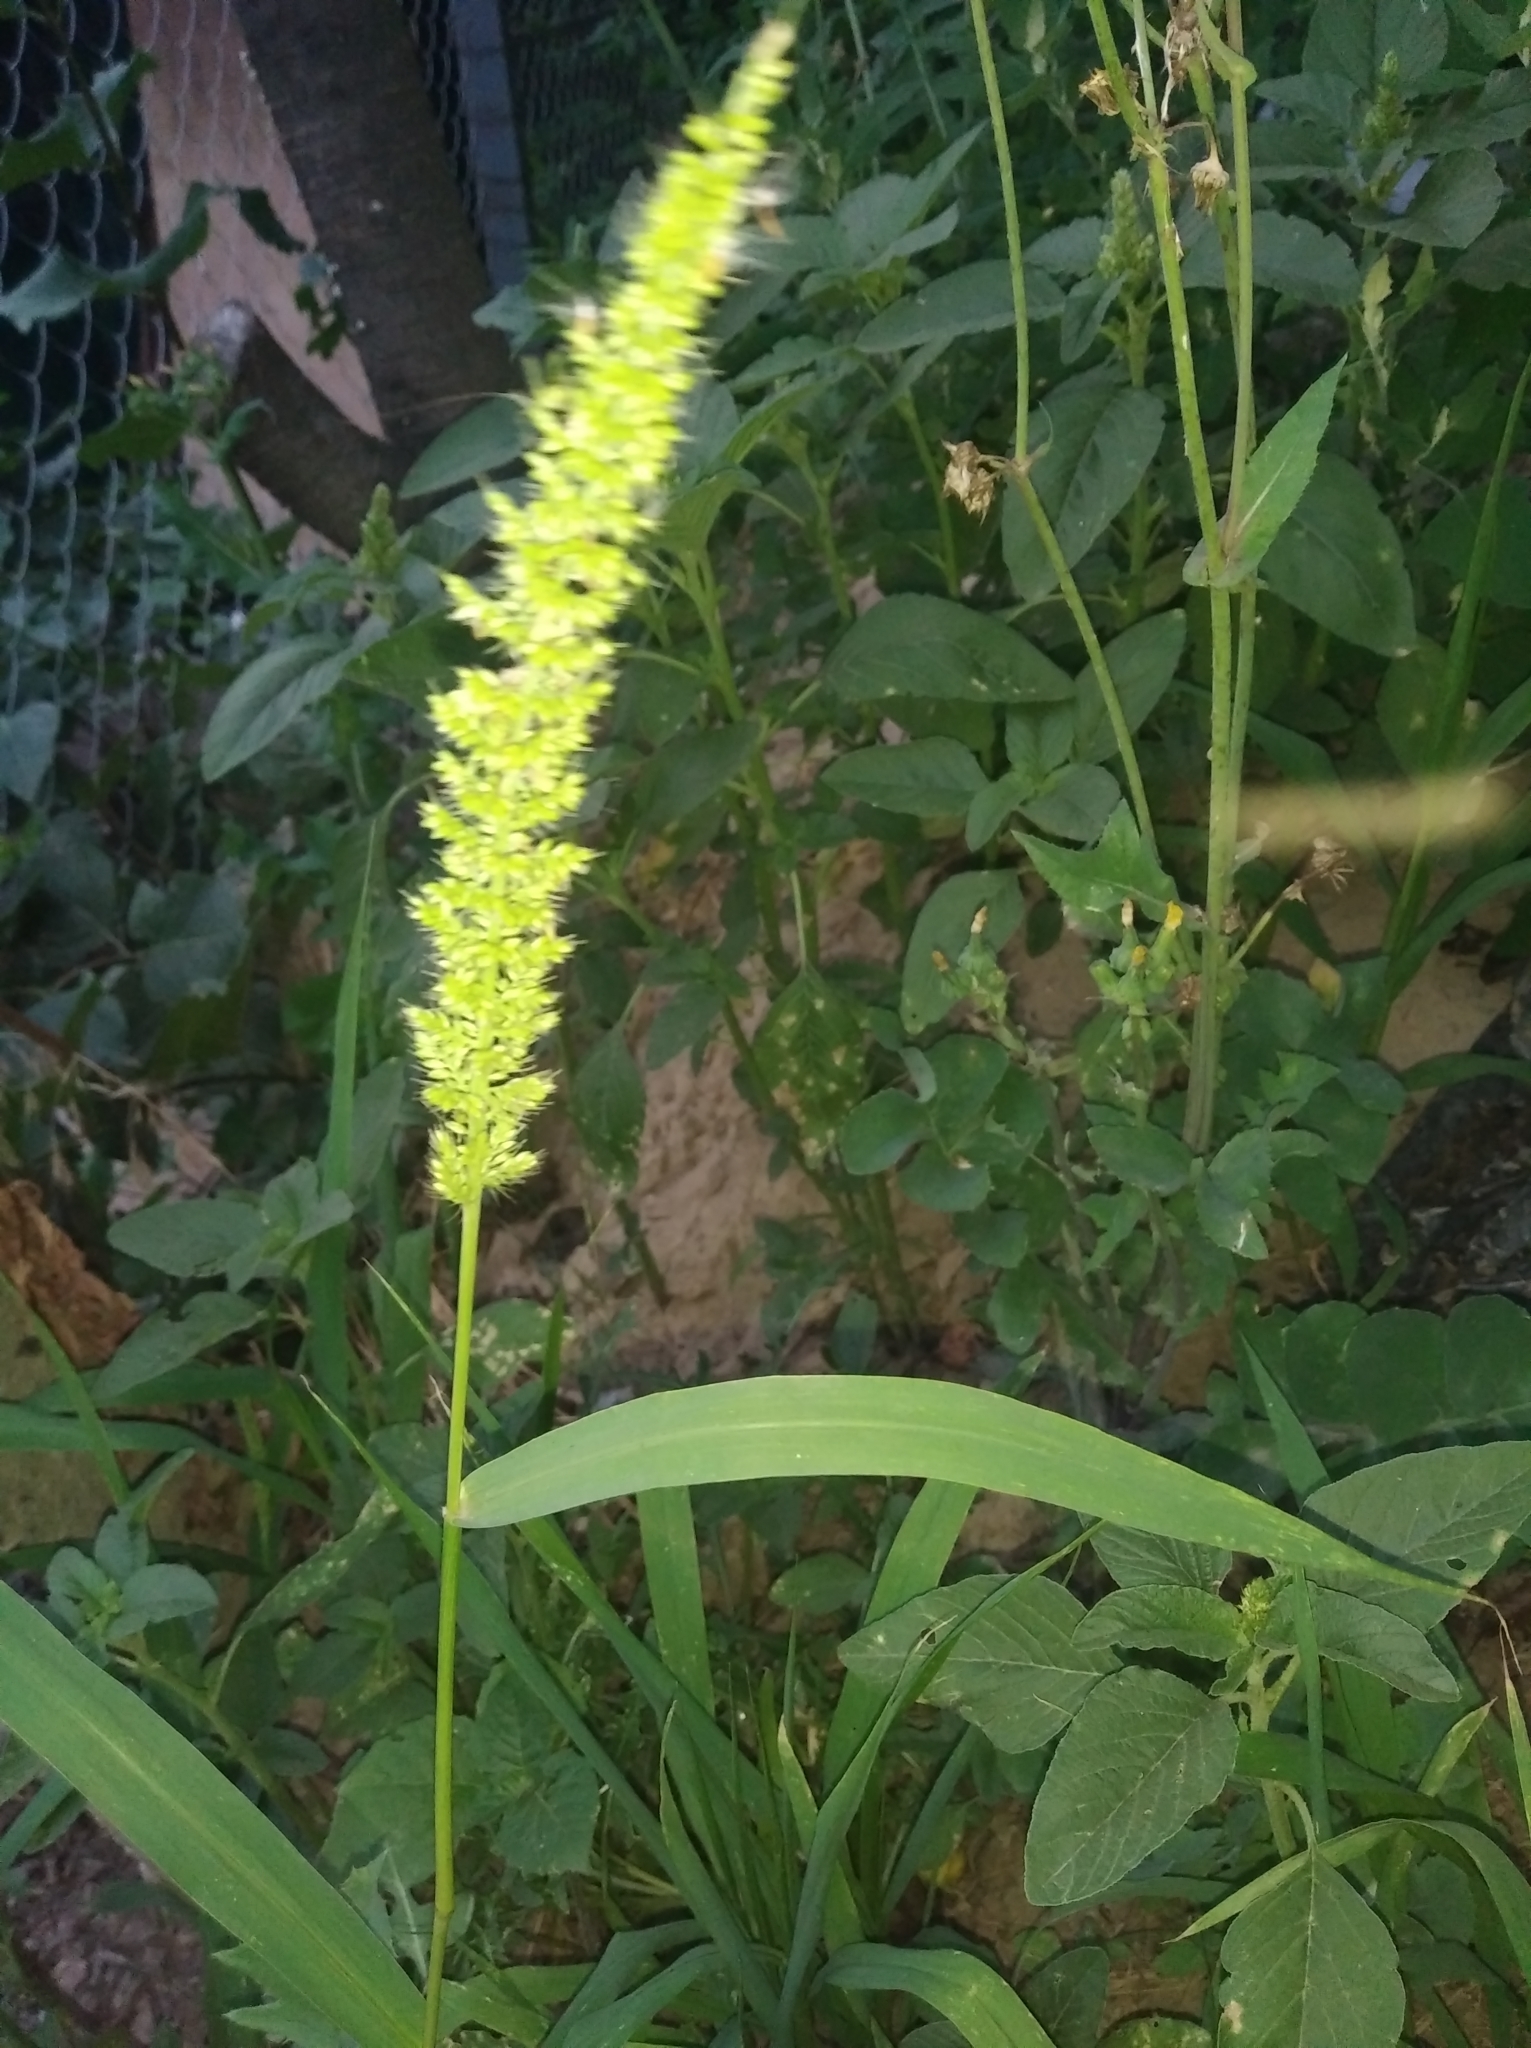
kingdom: Plantae
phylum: Tracheophyta
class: Liliopsida
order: Poales
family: Poaceae
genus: Setaria
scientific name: Setaria verticillata
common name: Hooked bristlegrass
